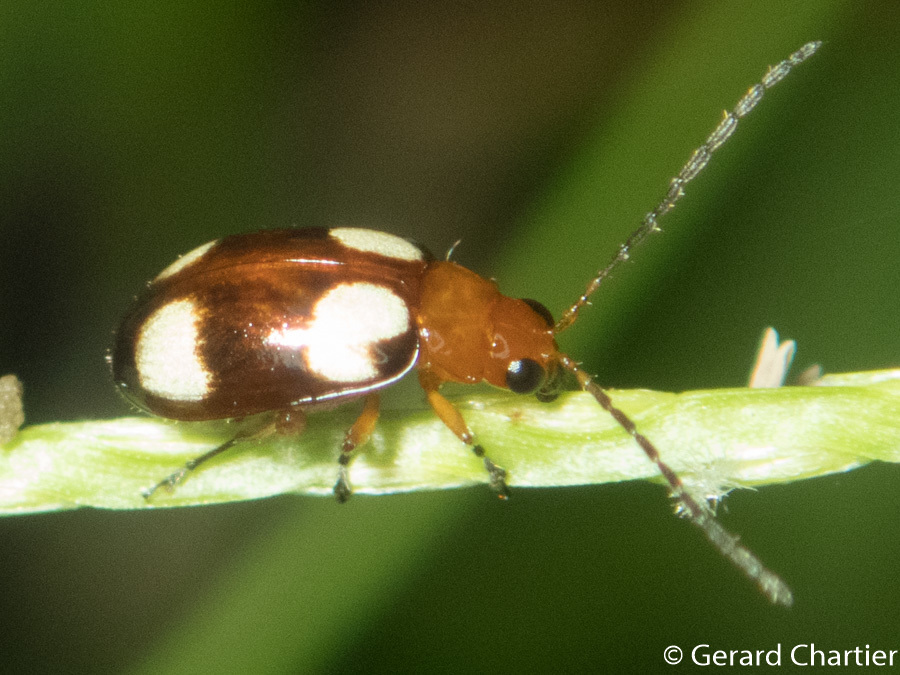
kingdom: Animalia
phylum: Arthropoda
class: Insecta
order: Coleoptera
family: Chrysomelidae
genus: Monolepta
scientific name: Monolepta signata
